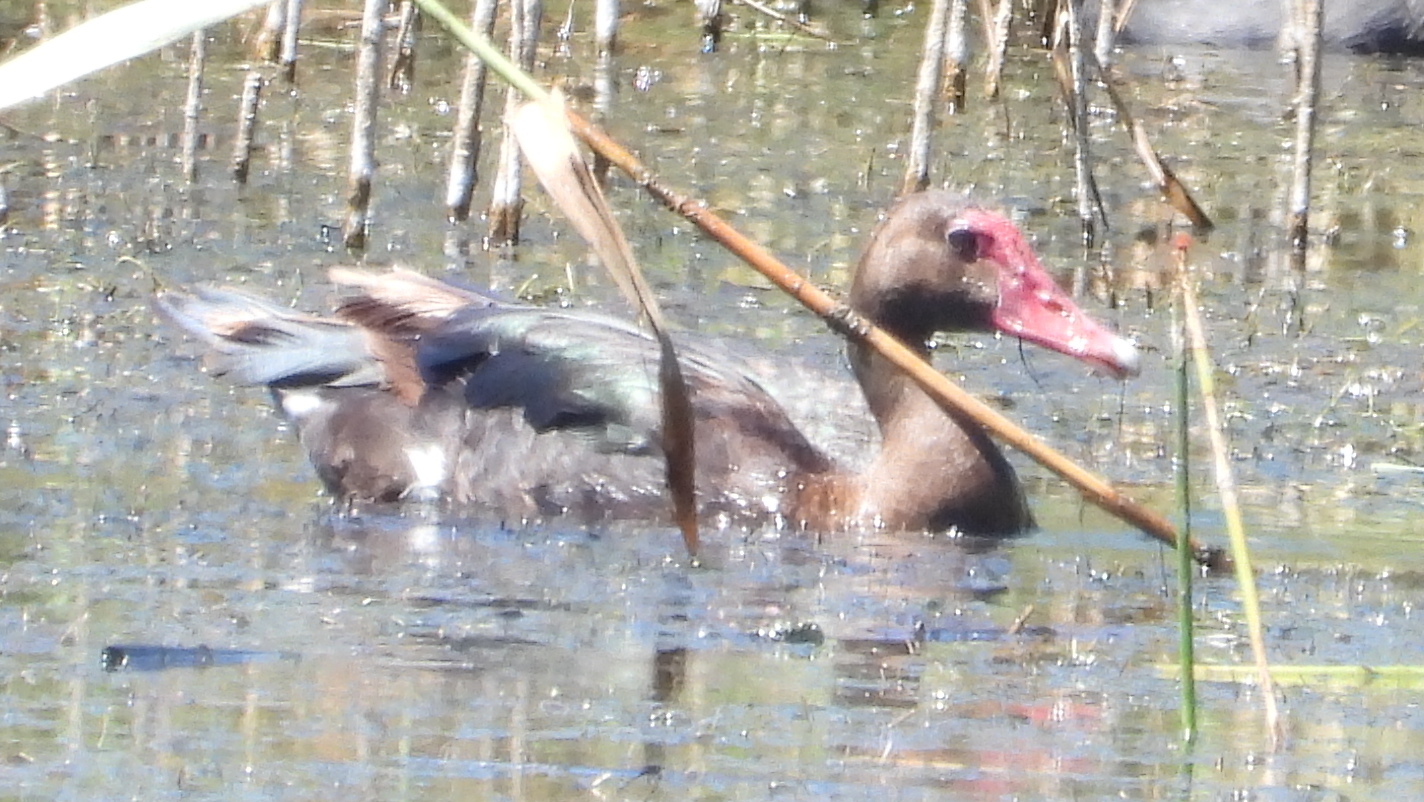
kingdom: Animalia
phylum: Chordata
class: Aves
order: Anseriformes
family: Anatidae
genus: Plectropterus
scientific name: Plectropterus gambensis
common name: Spur-winged goose
